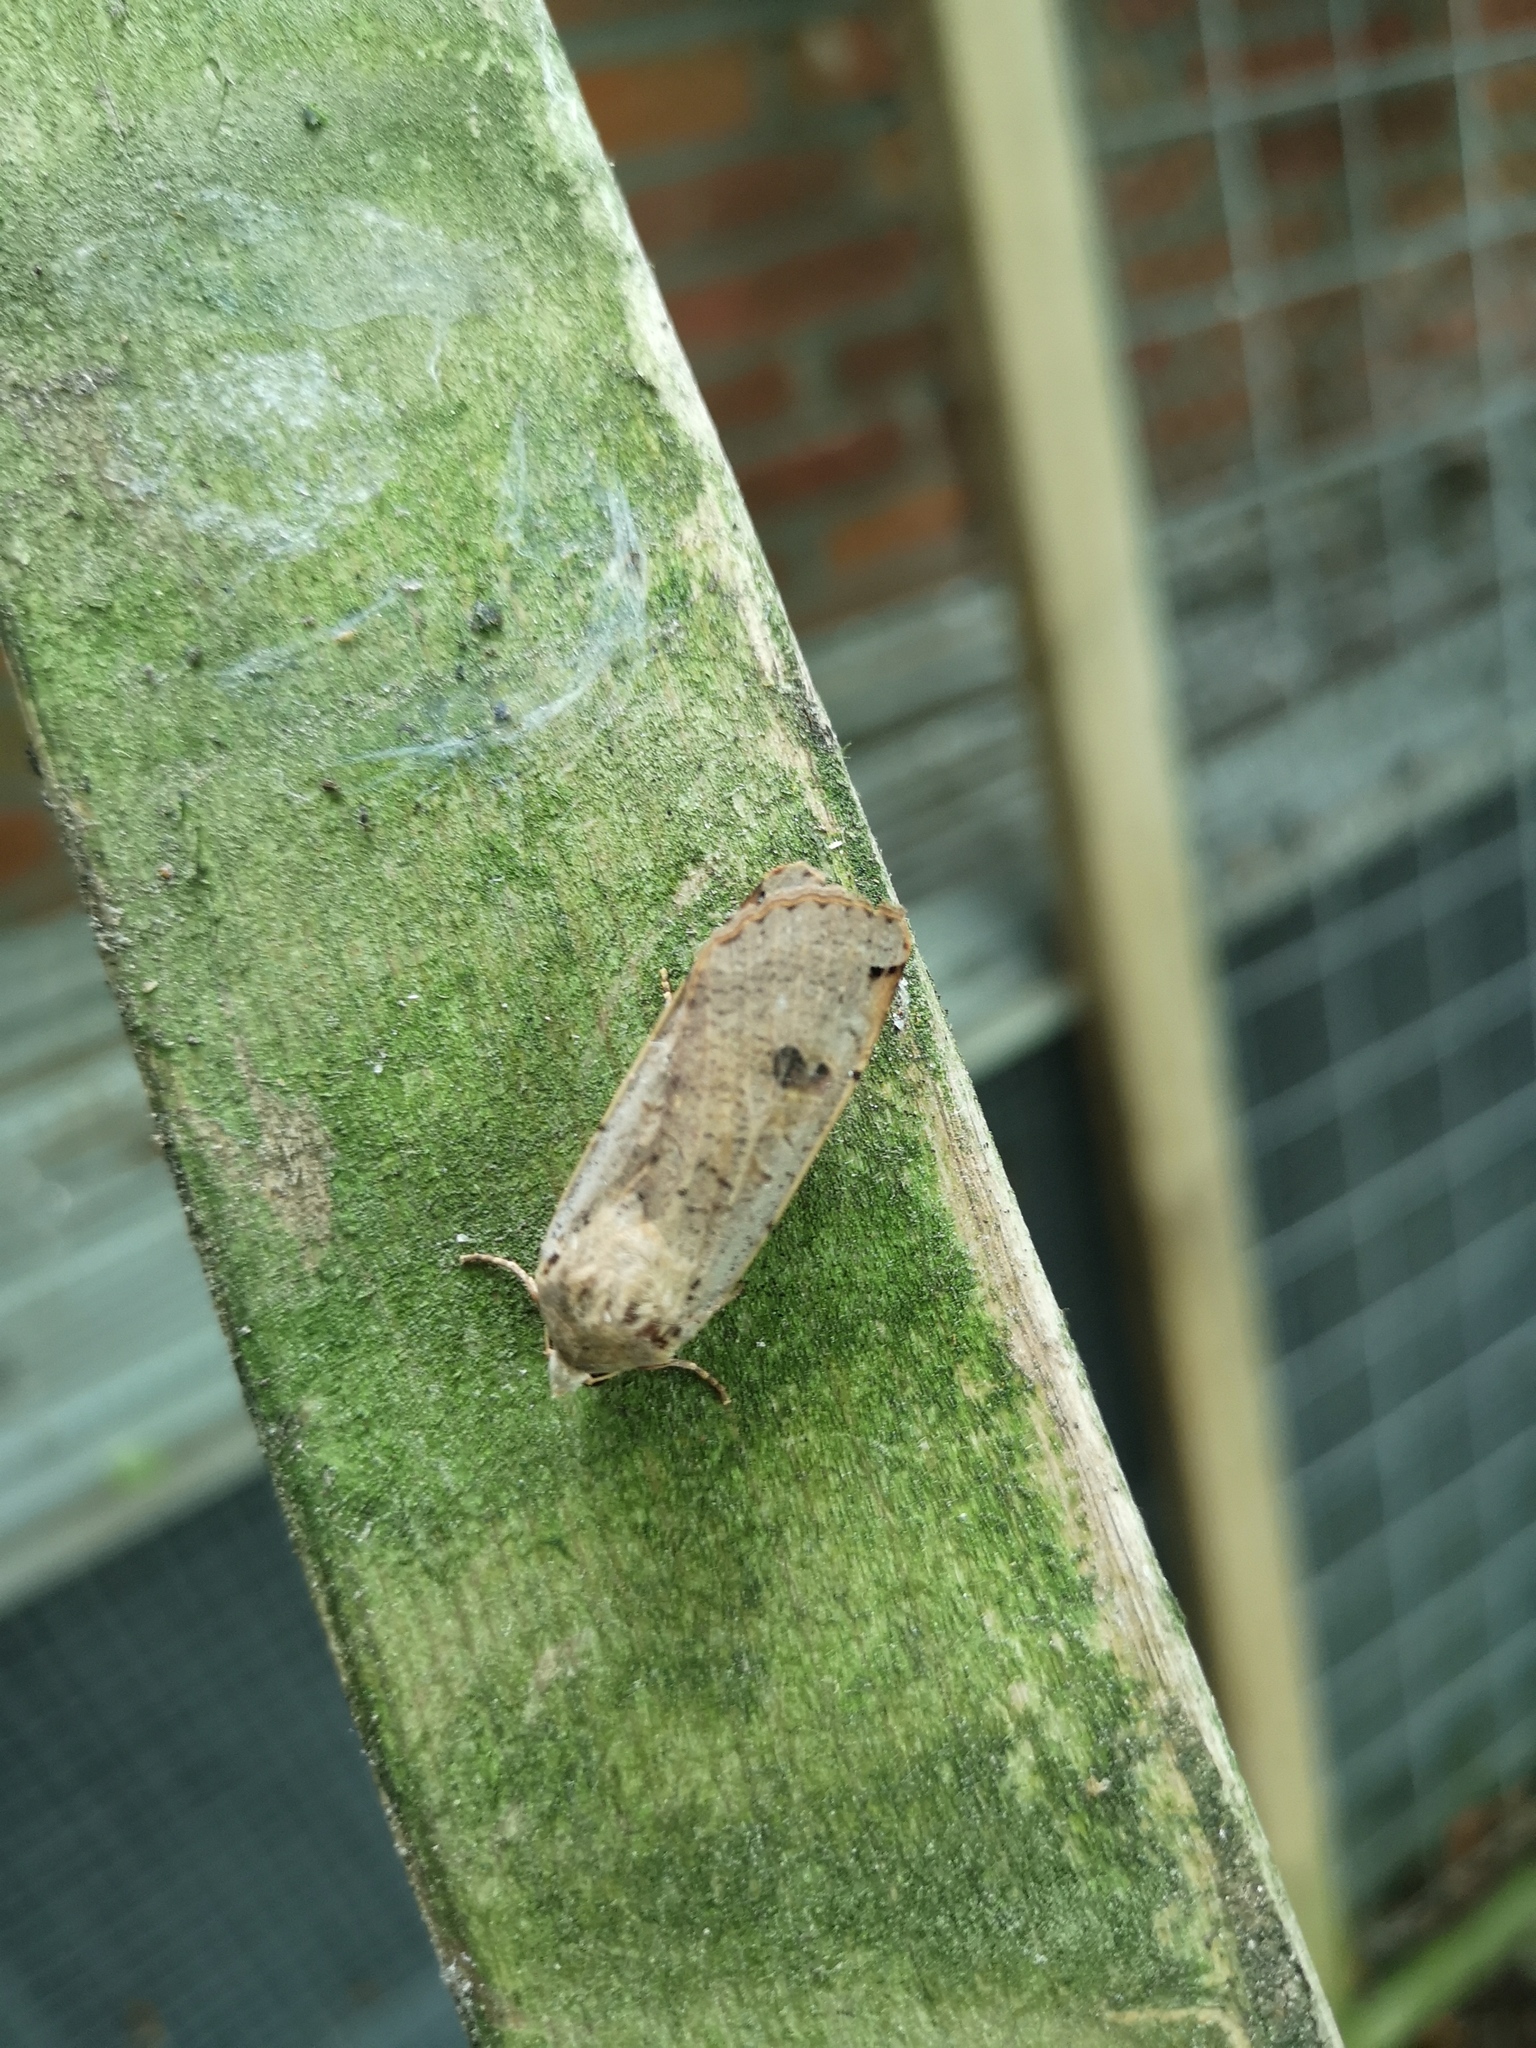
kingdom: Animalia
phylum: Arthropoda
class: Insecta
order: Lepidoptera
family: Noctuidae
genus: Noctua
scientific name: Noctua pronuba
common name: Large yellow underwing
